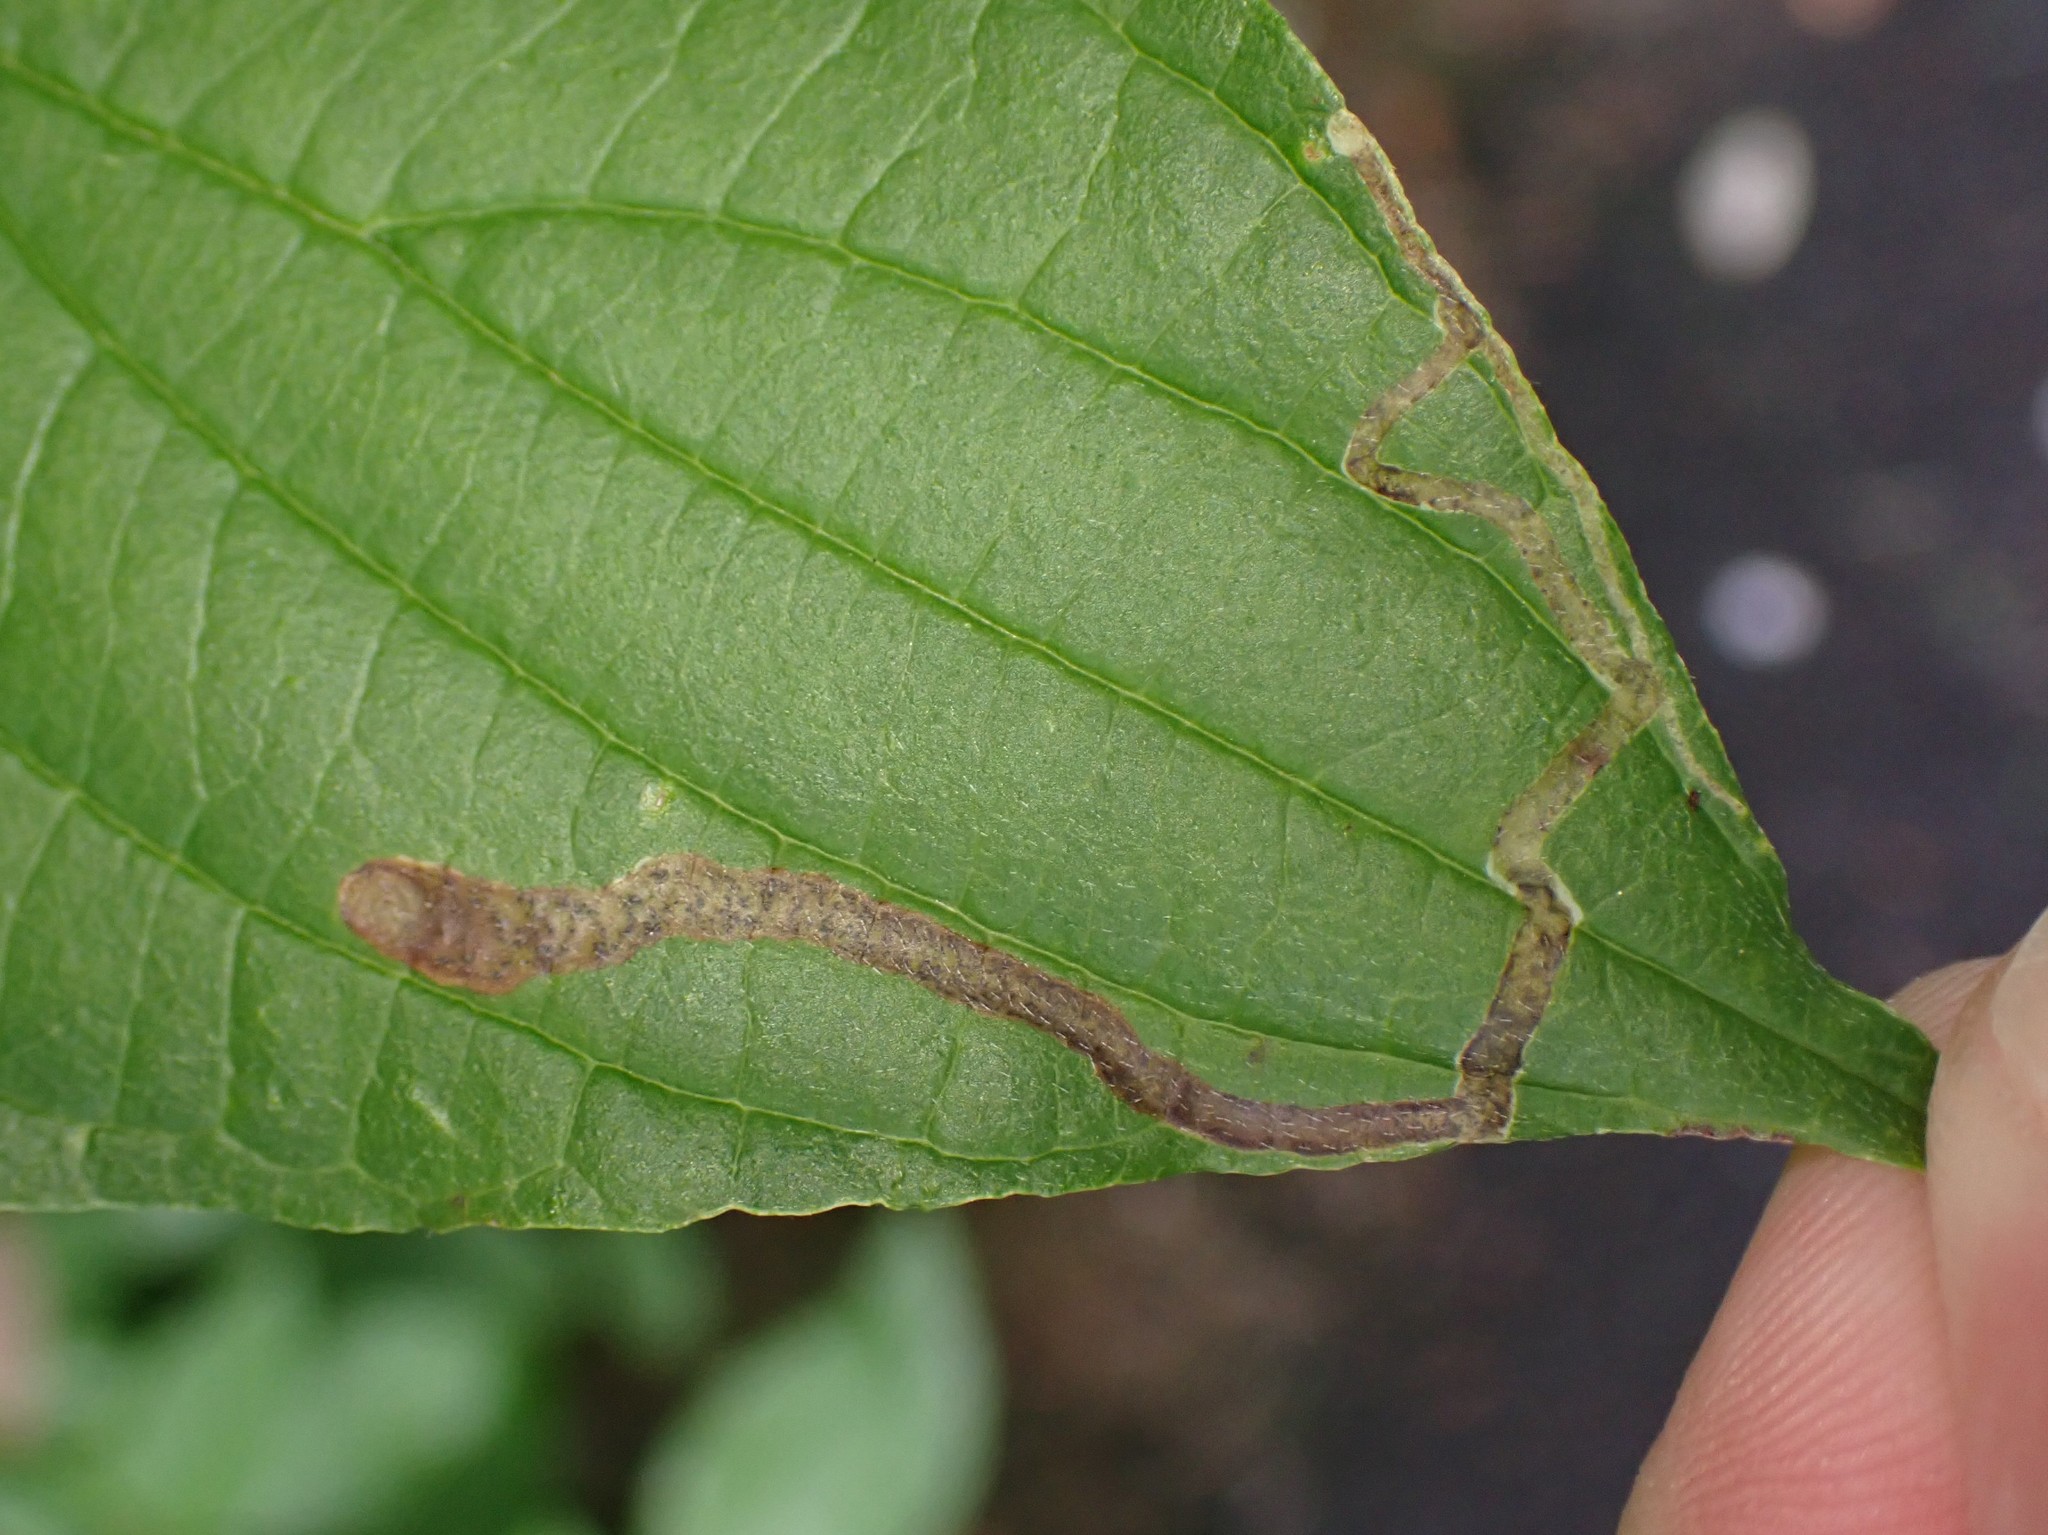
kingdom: Animalia
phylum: Arthropoda
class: Insecta
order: Diptera
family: Agromyzidae
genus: Phytomyza
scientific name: Phytomyza agromyzina
